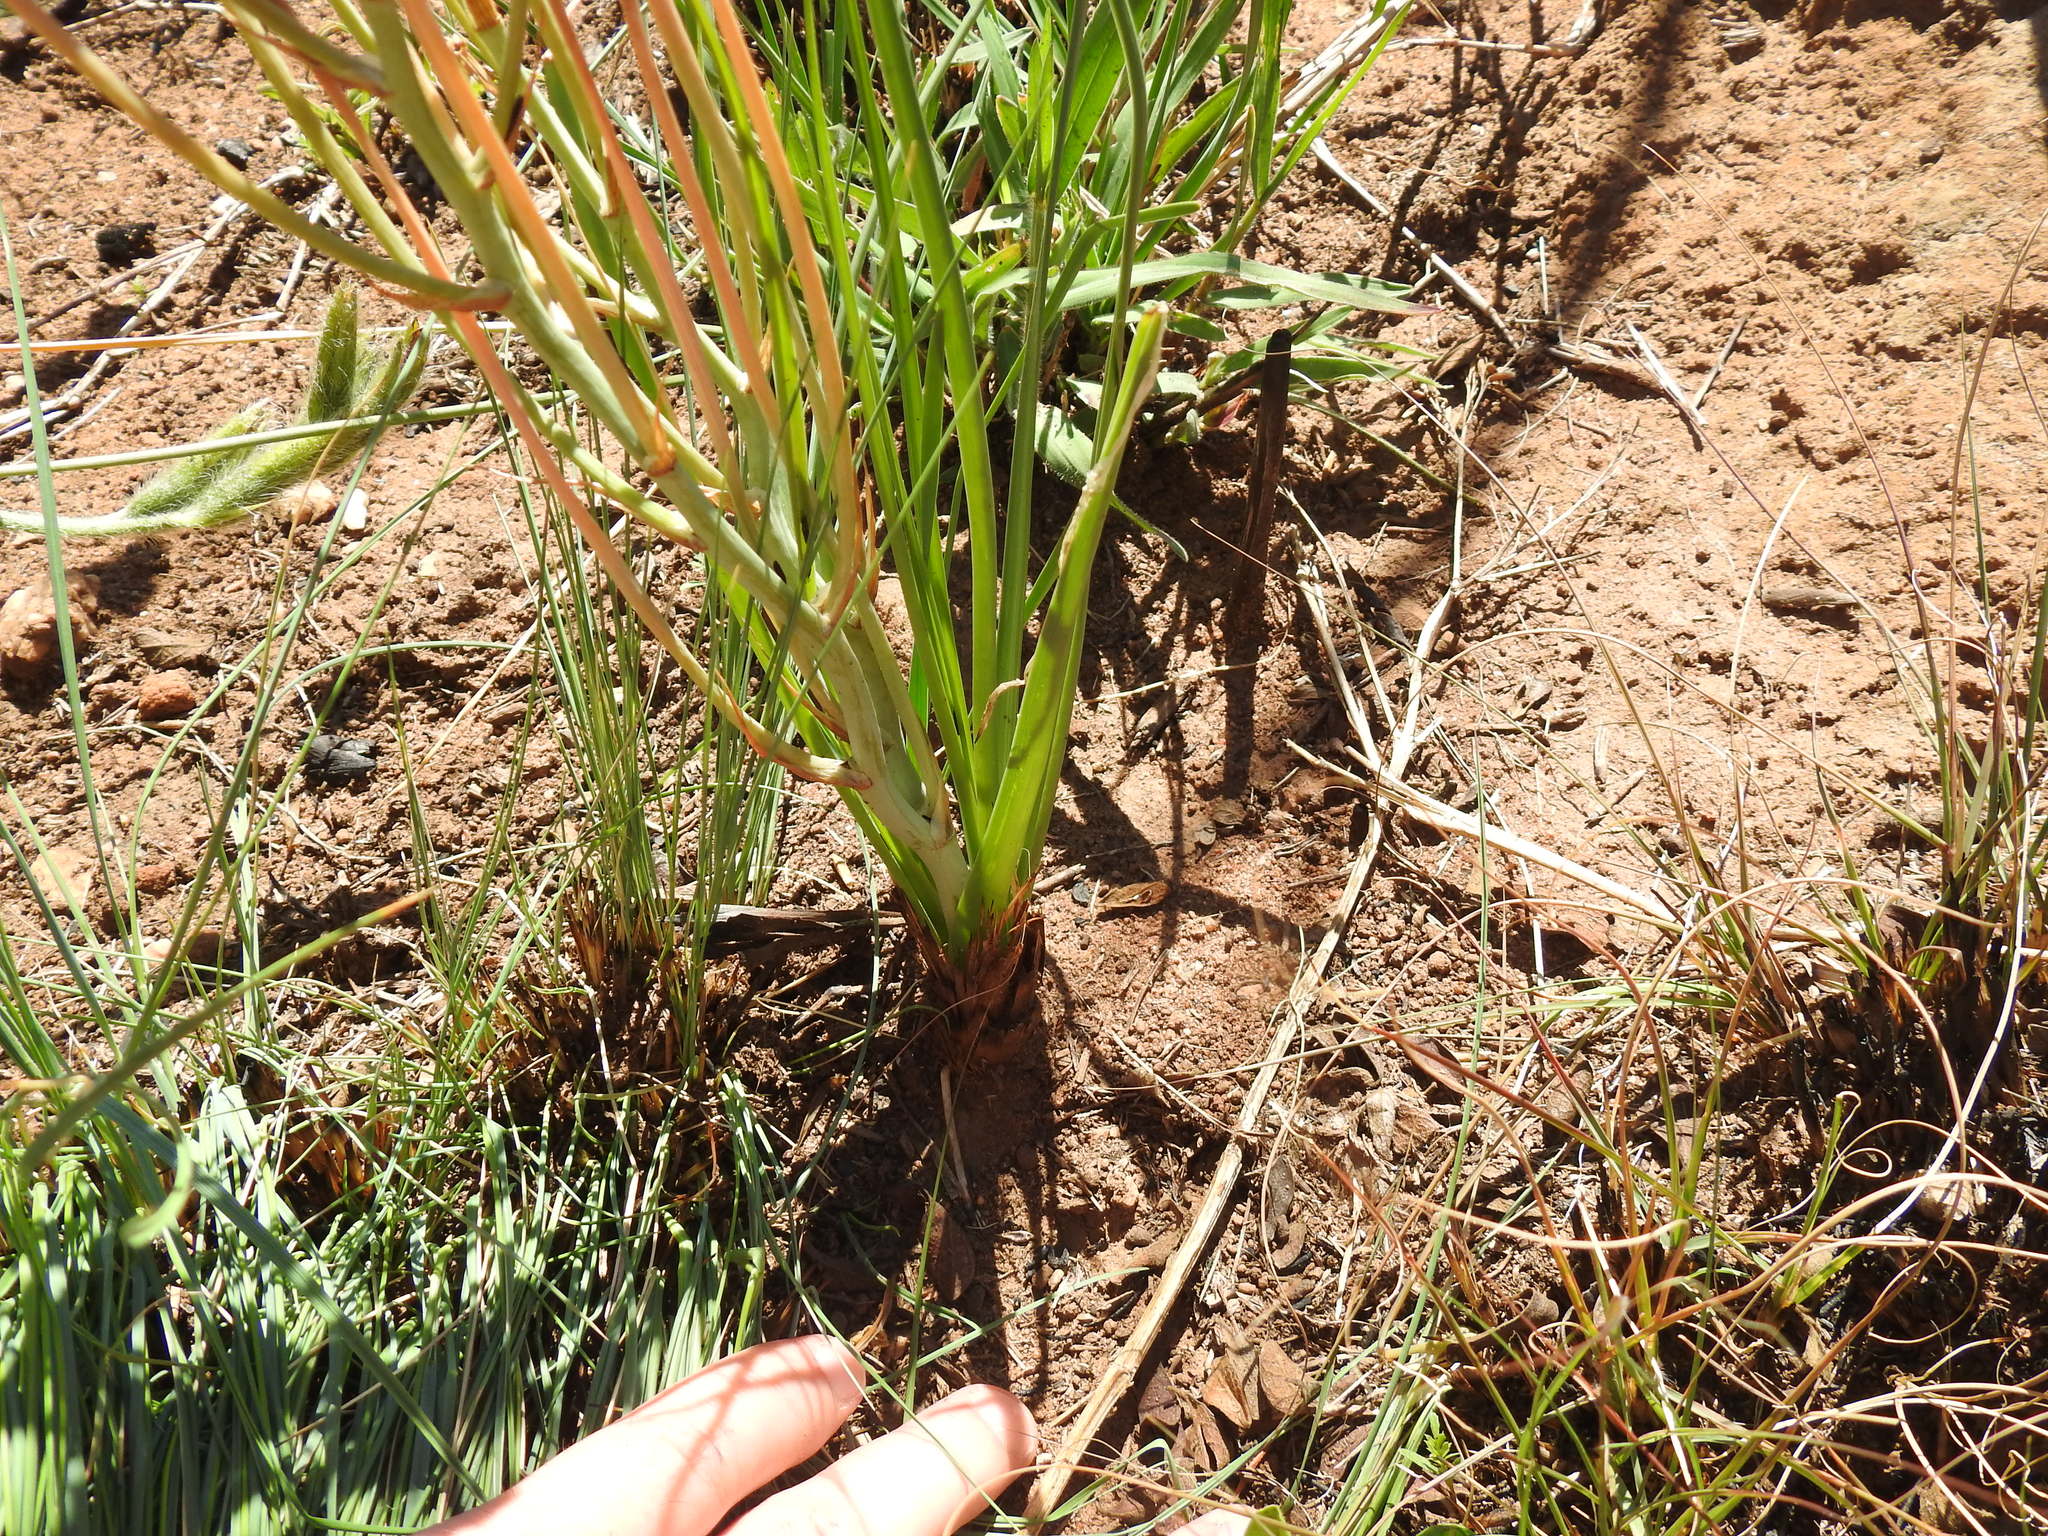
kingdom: Plantae
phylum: Tracheophyta
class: Liliopsida
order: Asparagales
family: Asparagaceae
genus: Albuca
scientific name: Albuca setosa
